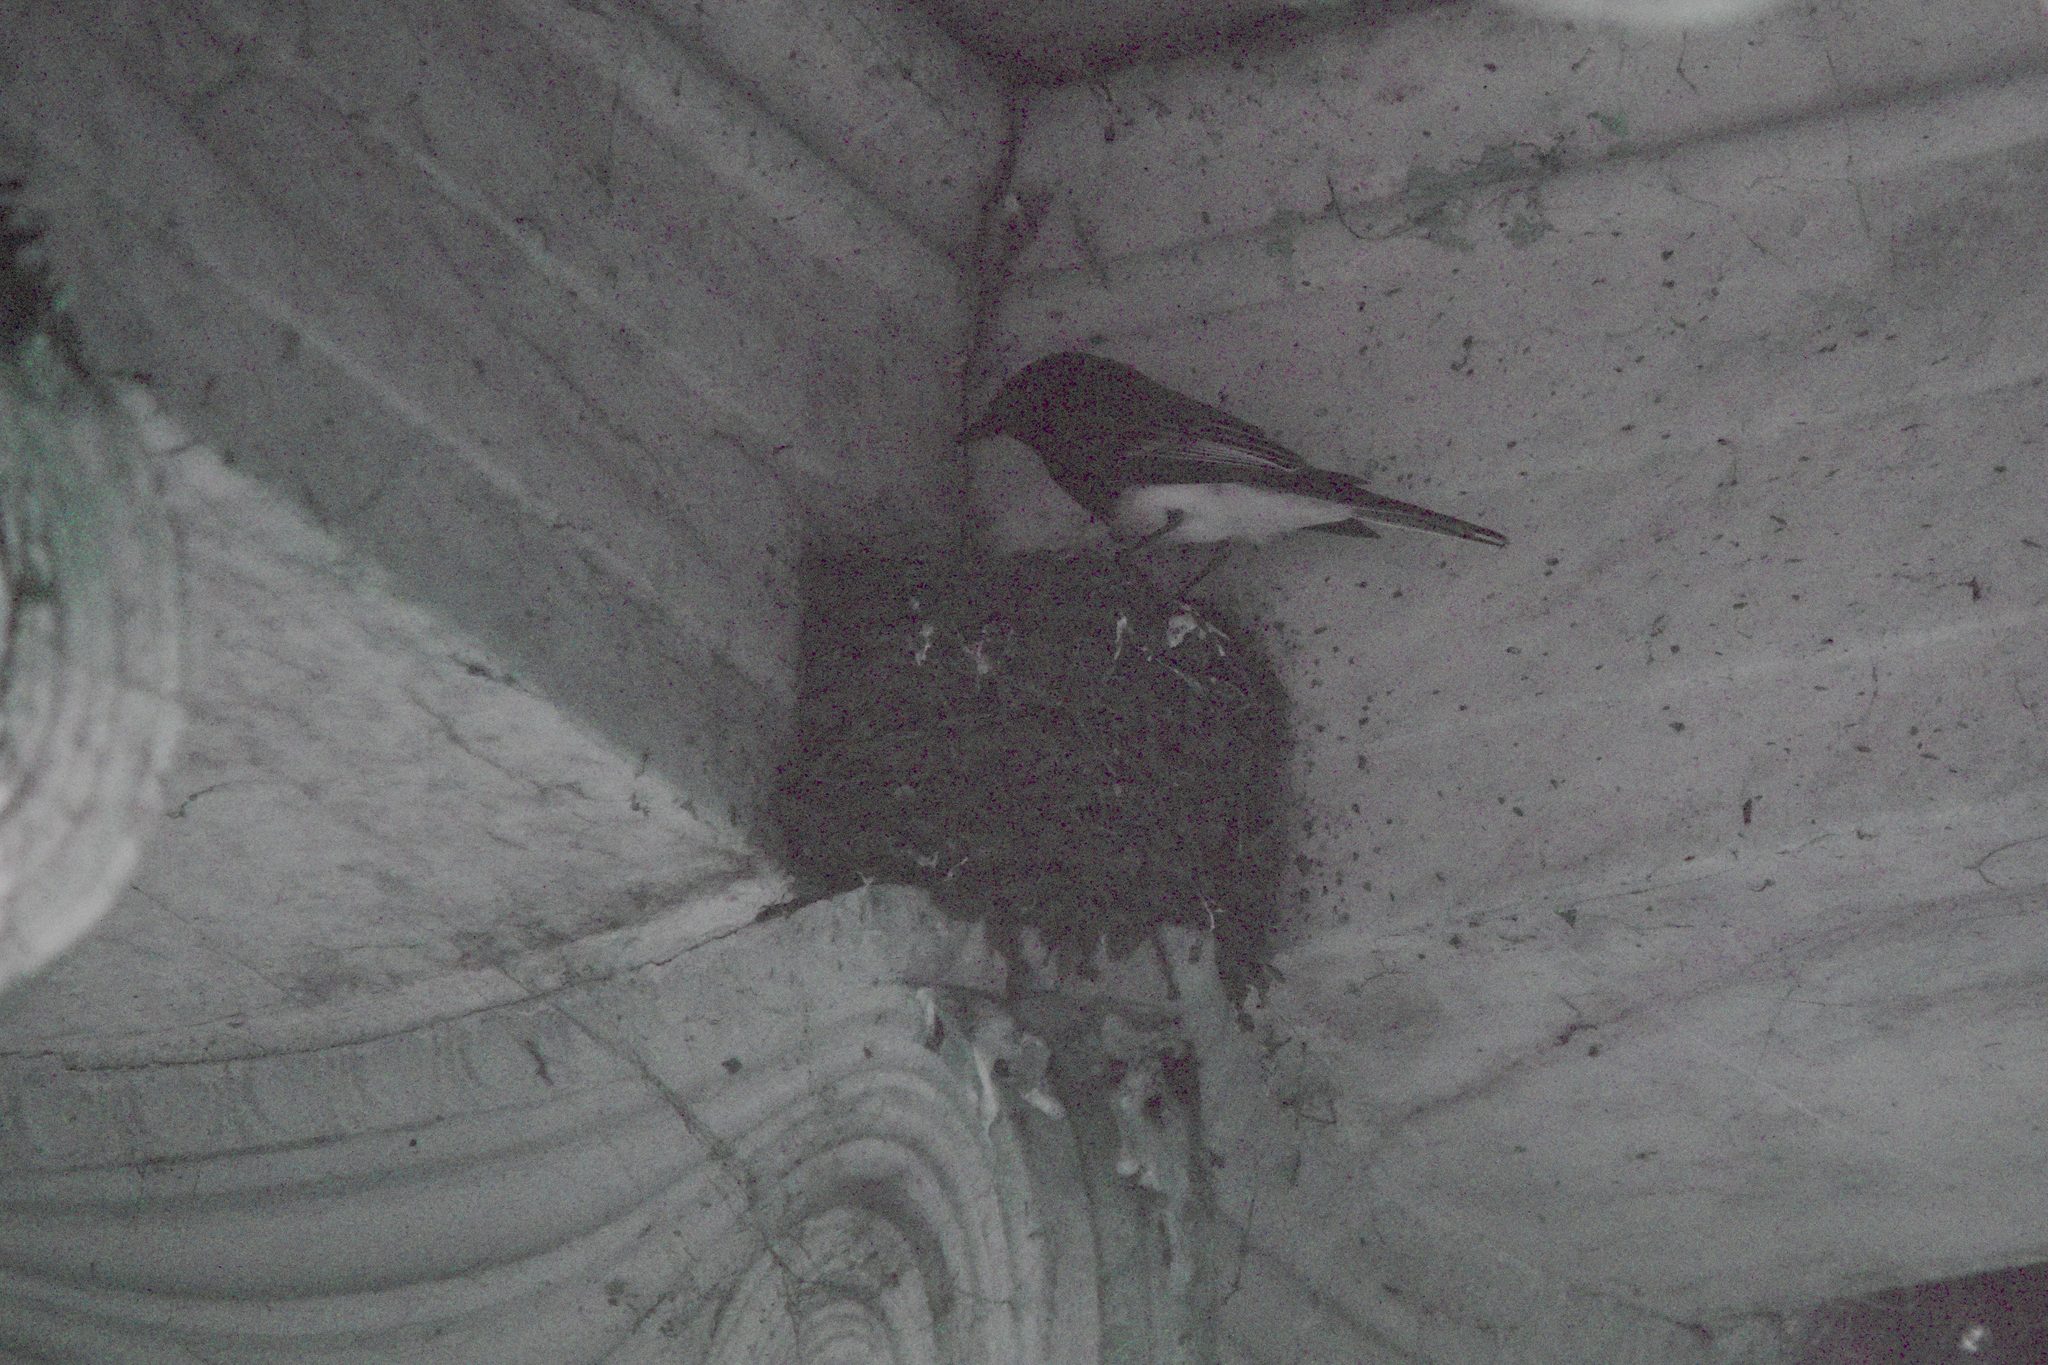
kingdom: Animalia
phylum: Chordata
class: Aves
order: Passeriformes
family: Tyrannidae
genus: Sayornis
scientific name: Sayornis nigricans
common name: Black phoebe
